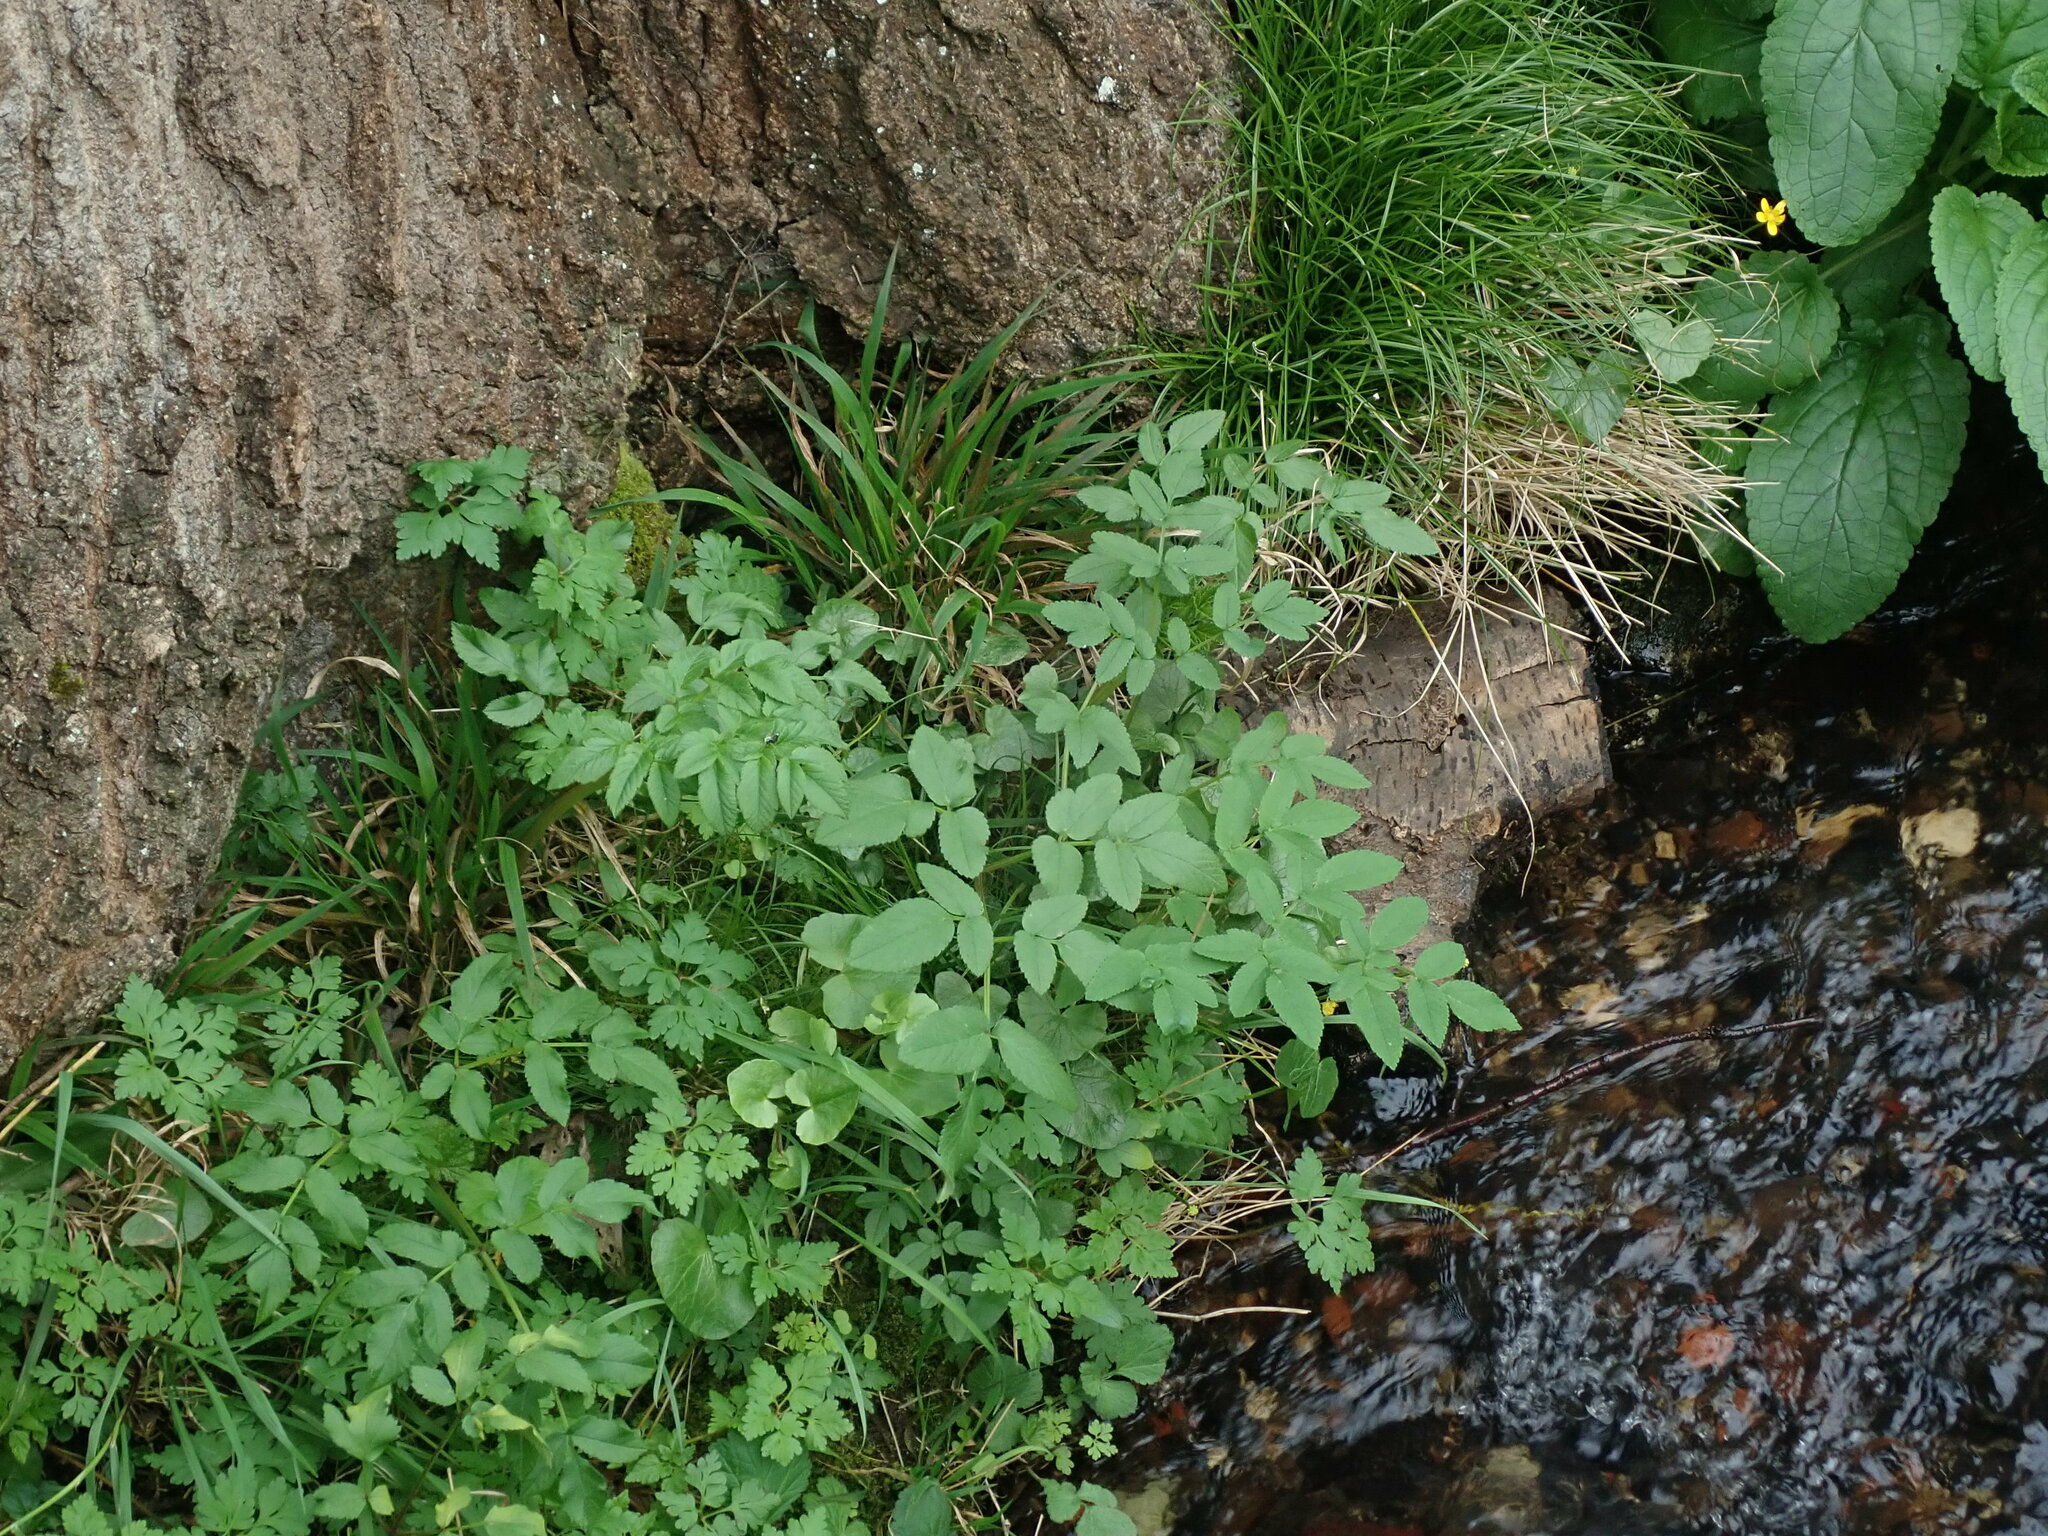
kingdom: Plantae
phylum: Tracheophyta
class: Magnoliopsida
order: Apiales
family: Apiaceae
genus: Angelica
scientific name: Angelica sylvestris
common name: Wild angelica
